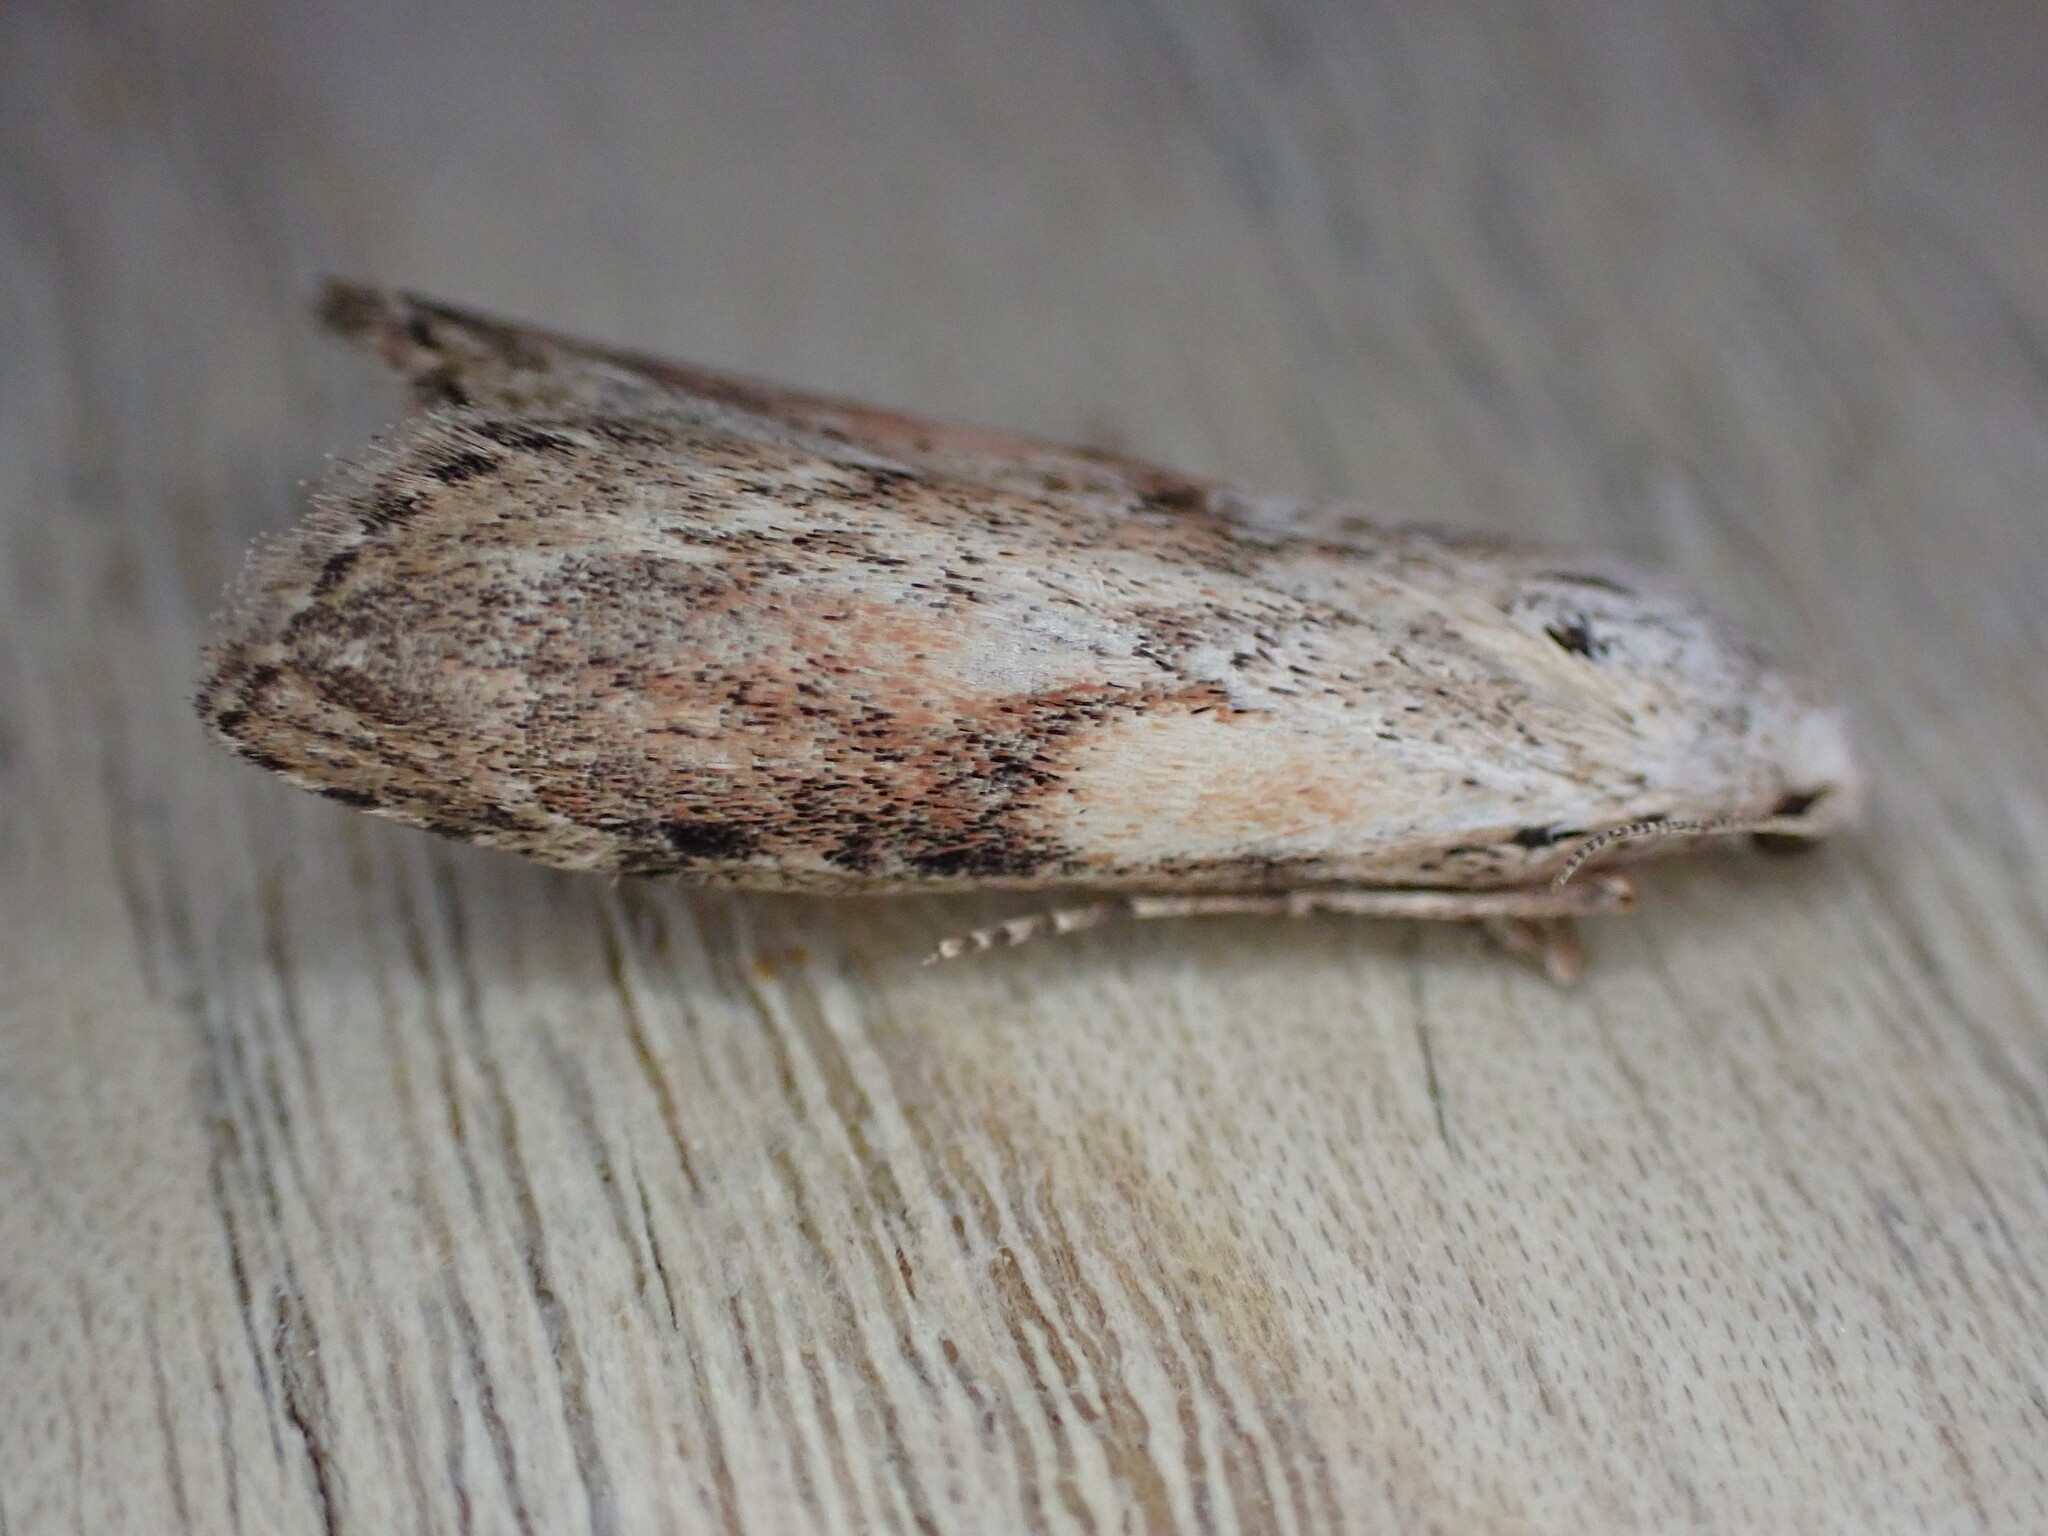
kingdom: Animalia
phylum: Arthropoda
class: Insecta
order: Lepidoptera
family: Pyralidae
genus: Aphomia
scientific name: Aphomia sociella
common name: Bee moth
